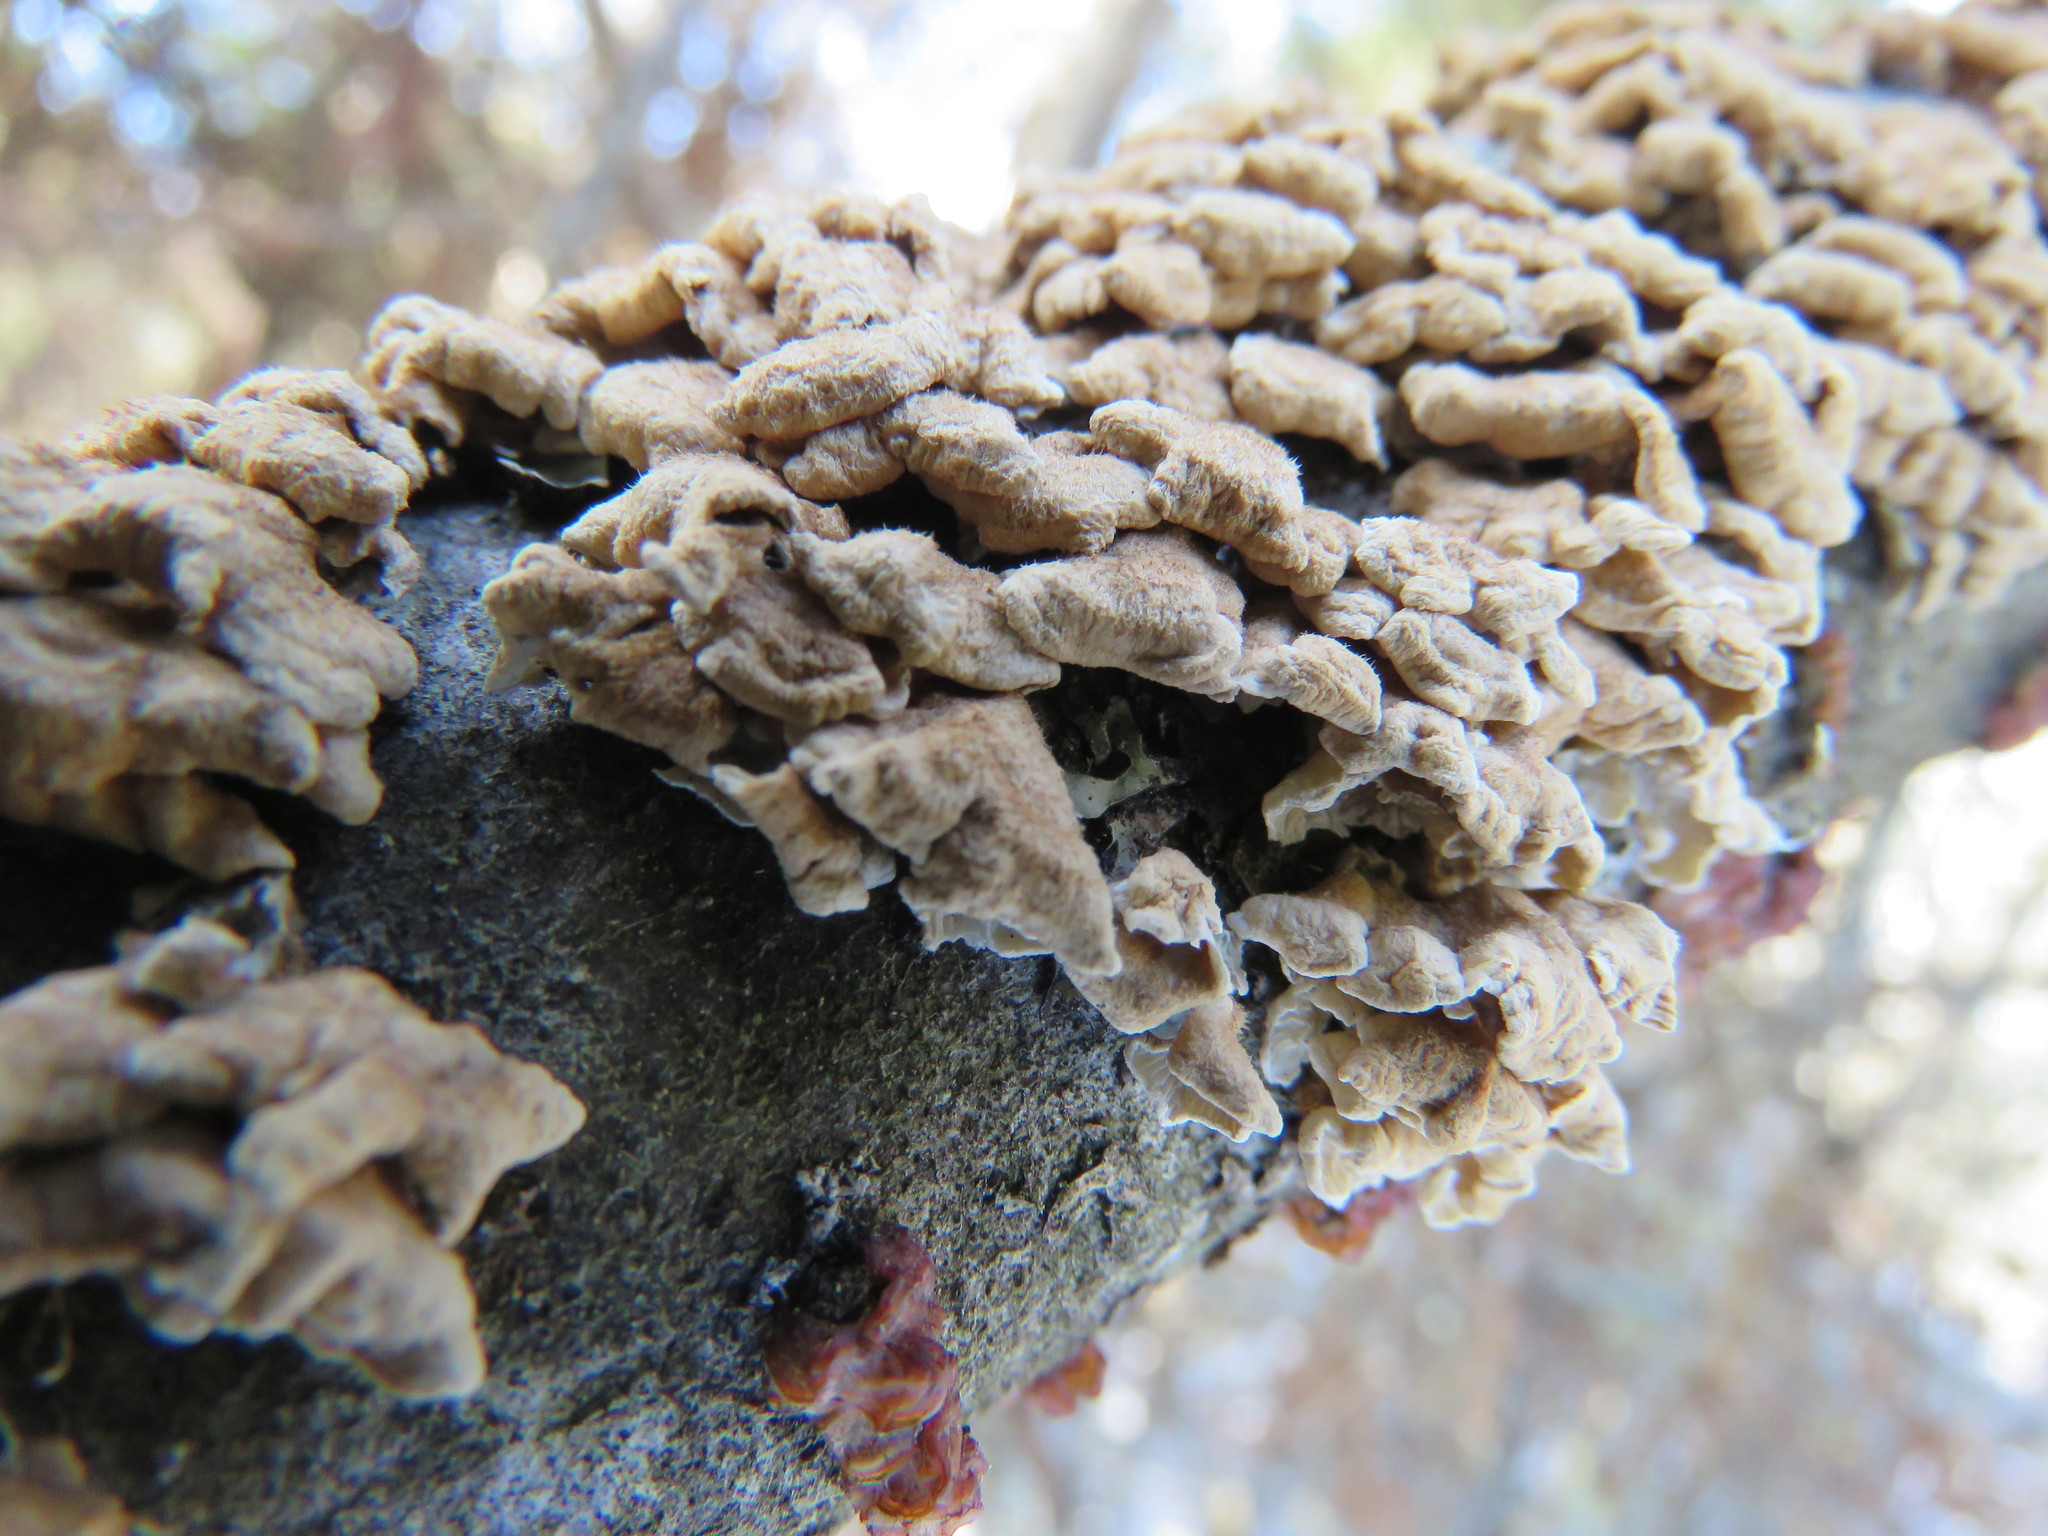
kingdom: Fungi
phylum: Basidiomycota
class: Agaricomycetes
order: Amylocorticiales
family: Amylocorticiaceae
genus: Plicaturopsis
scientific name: Plicaturopsis crispa
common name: Crimped gill
